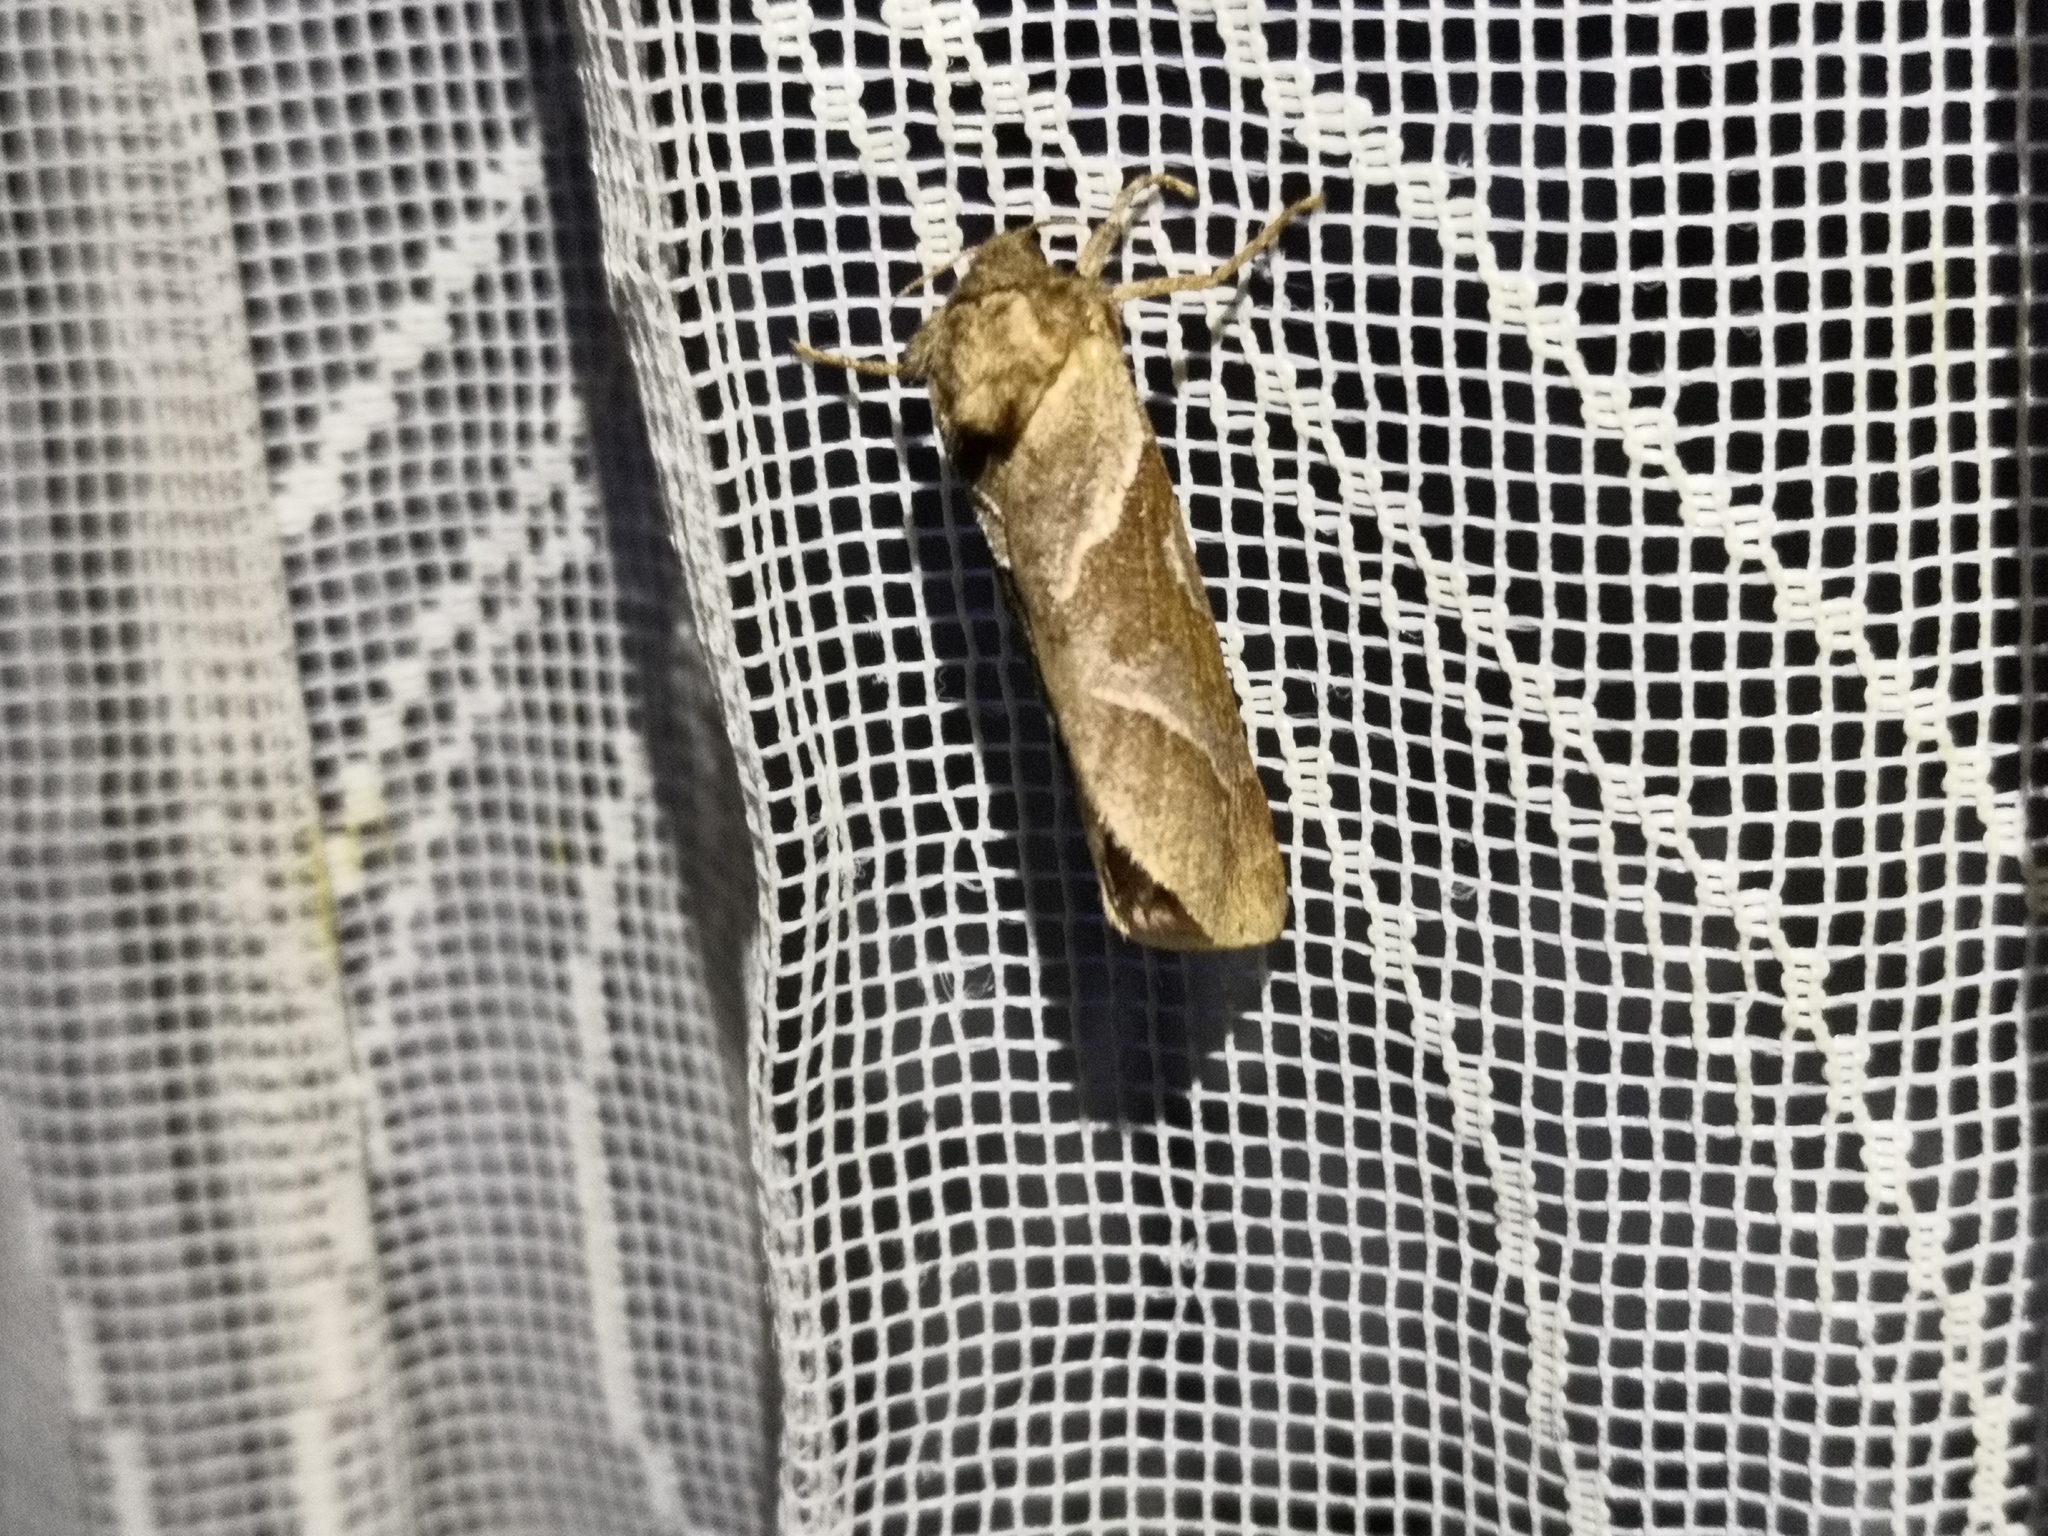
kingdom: Animalia
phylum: Arthropoda
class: Insecta
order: Lepidoptera
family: Hepialidae
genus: Triodia
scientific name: Triodia sylvina
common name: Orange swift
